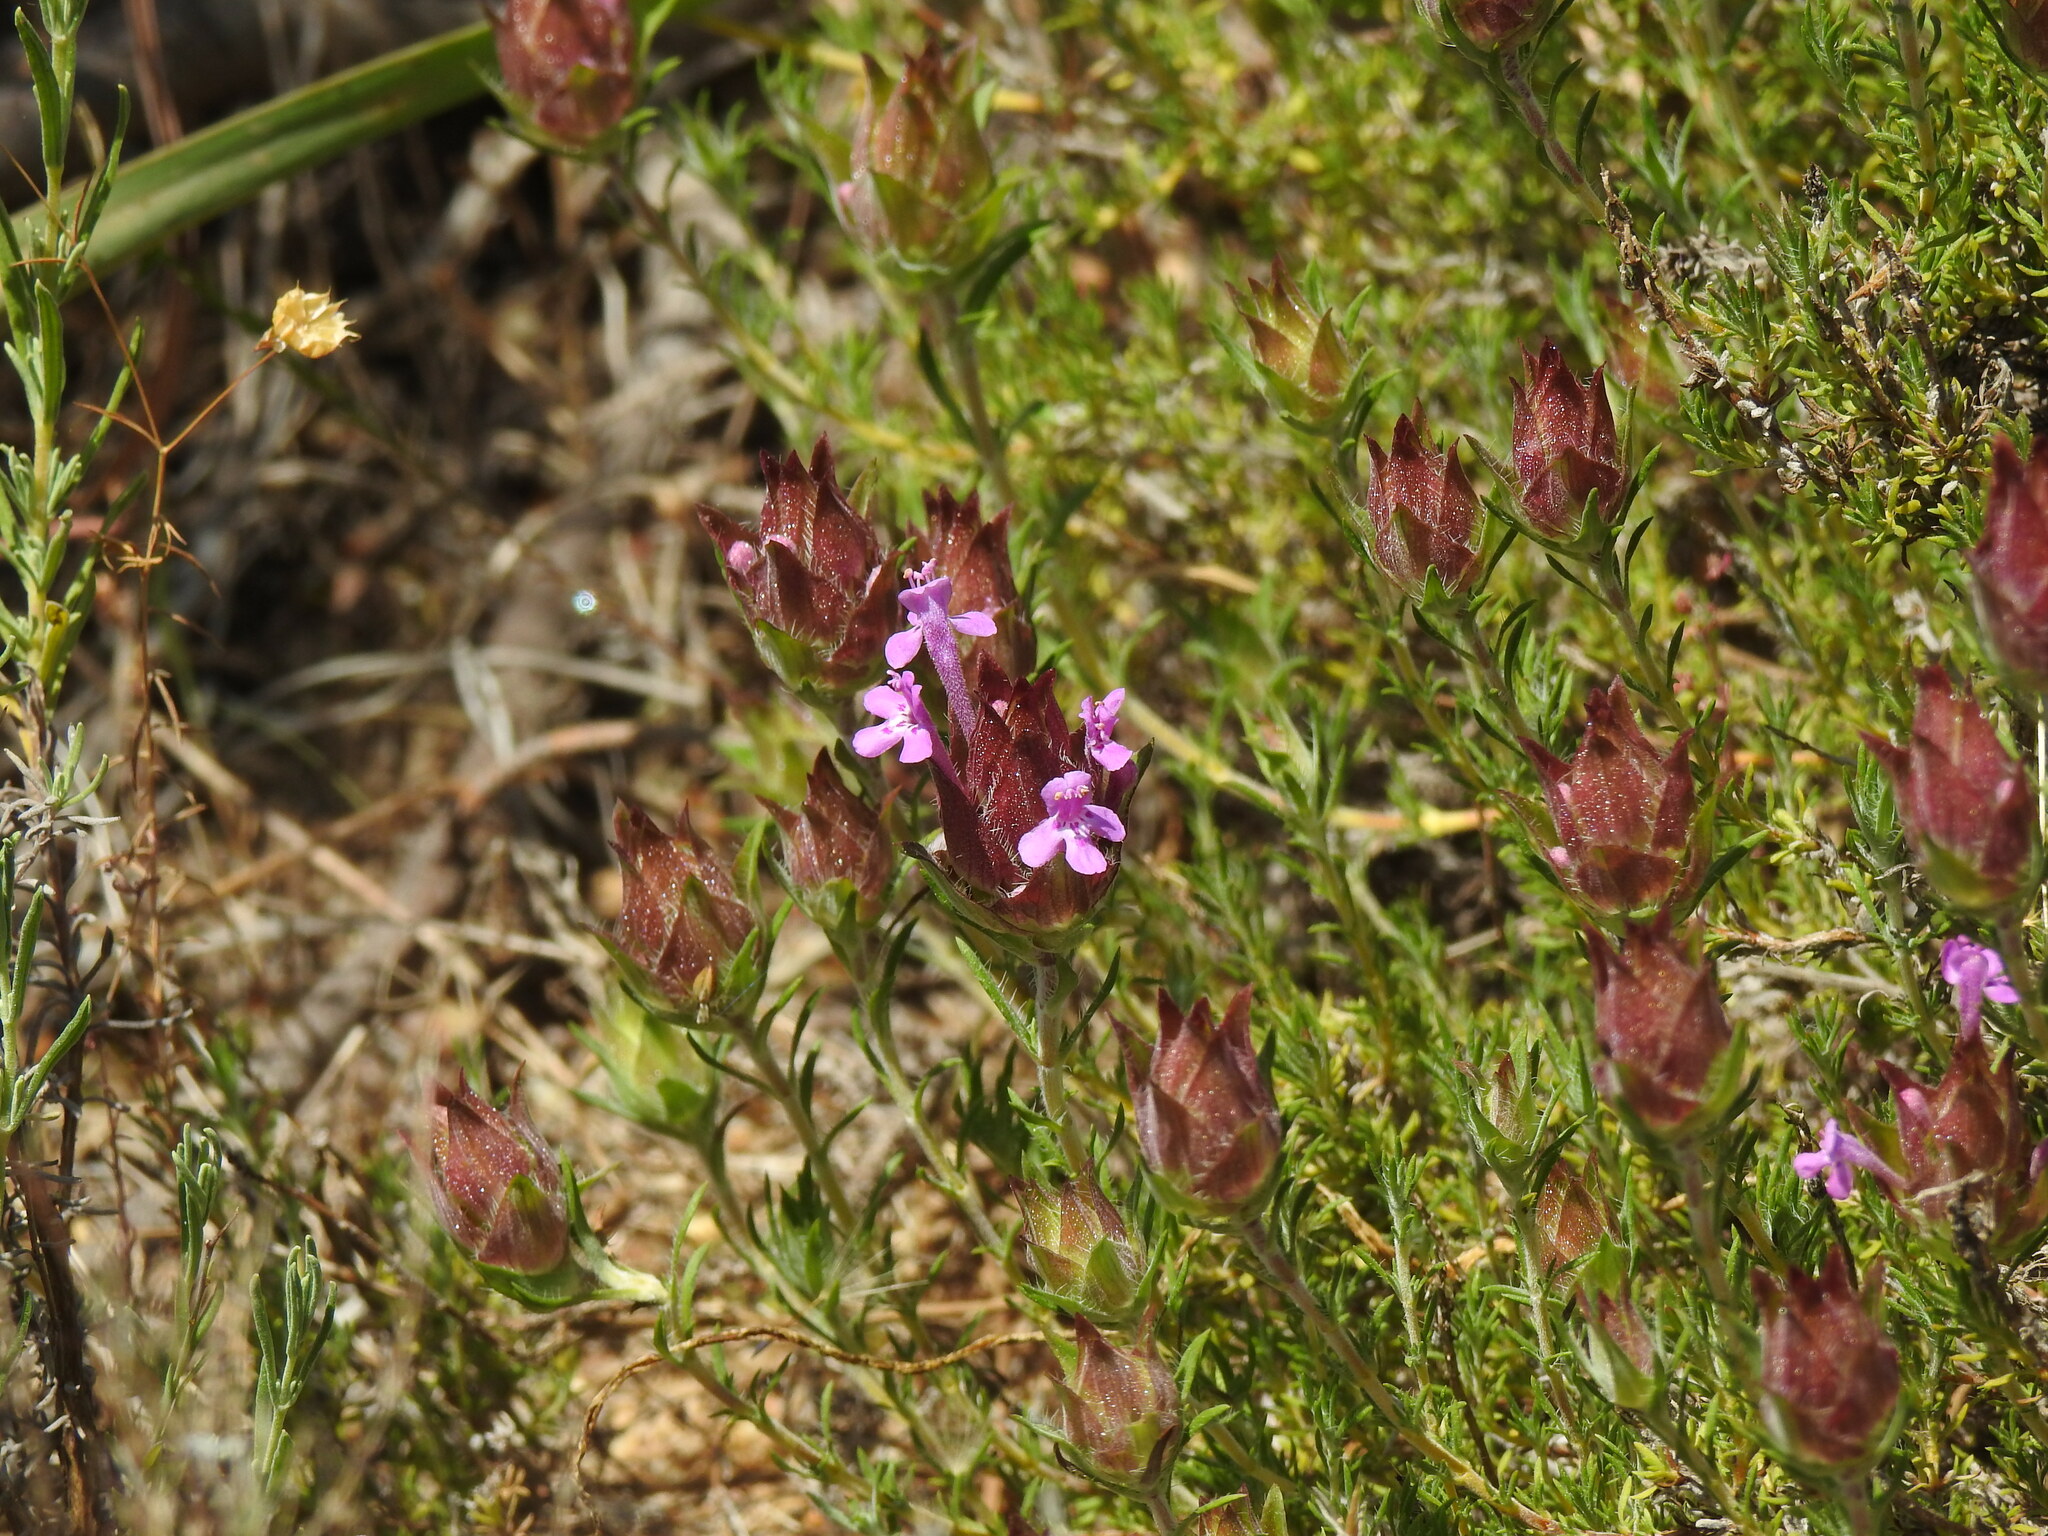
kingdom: Plantae
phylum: Tracheophyta
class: Magnoliopsida
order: Lamiales
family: Lamiaceae
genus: Thymus
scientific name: Thymus lotocephalus
